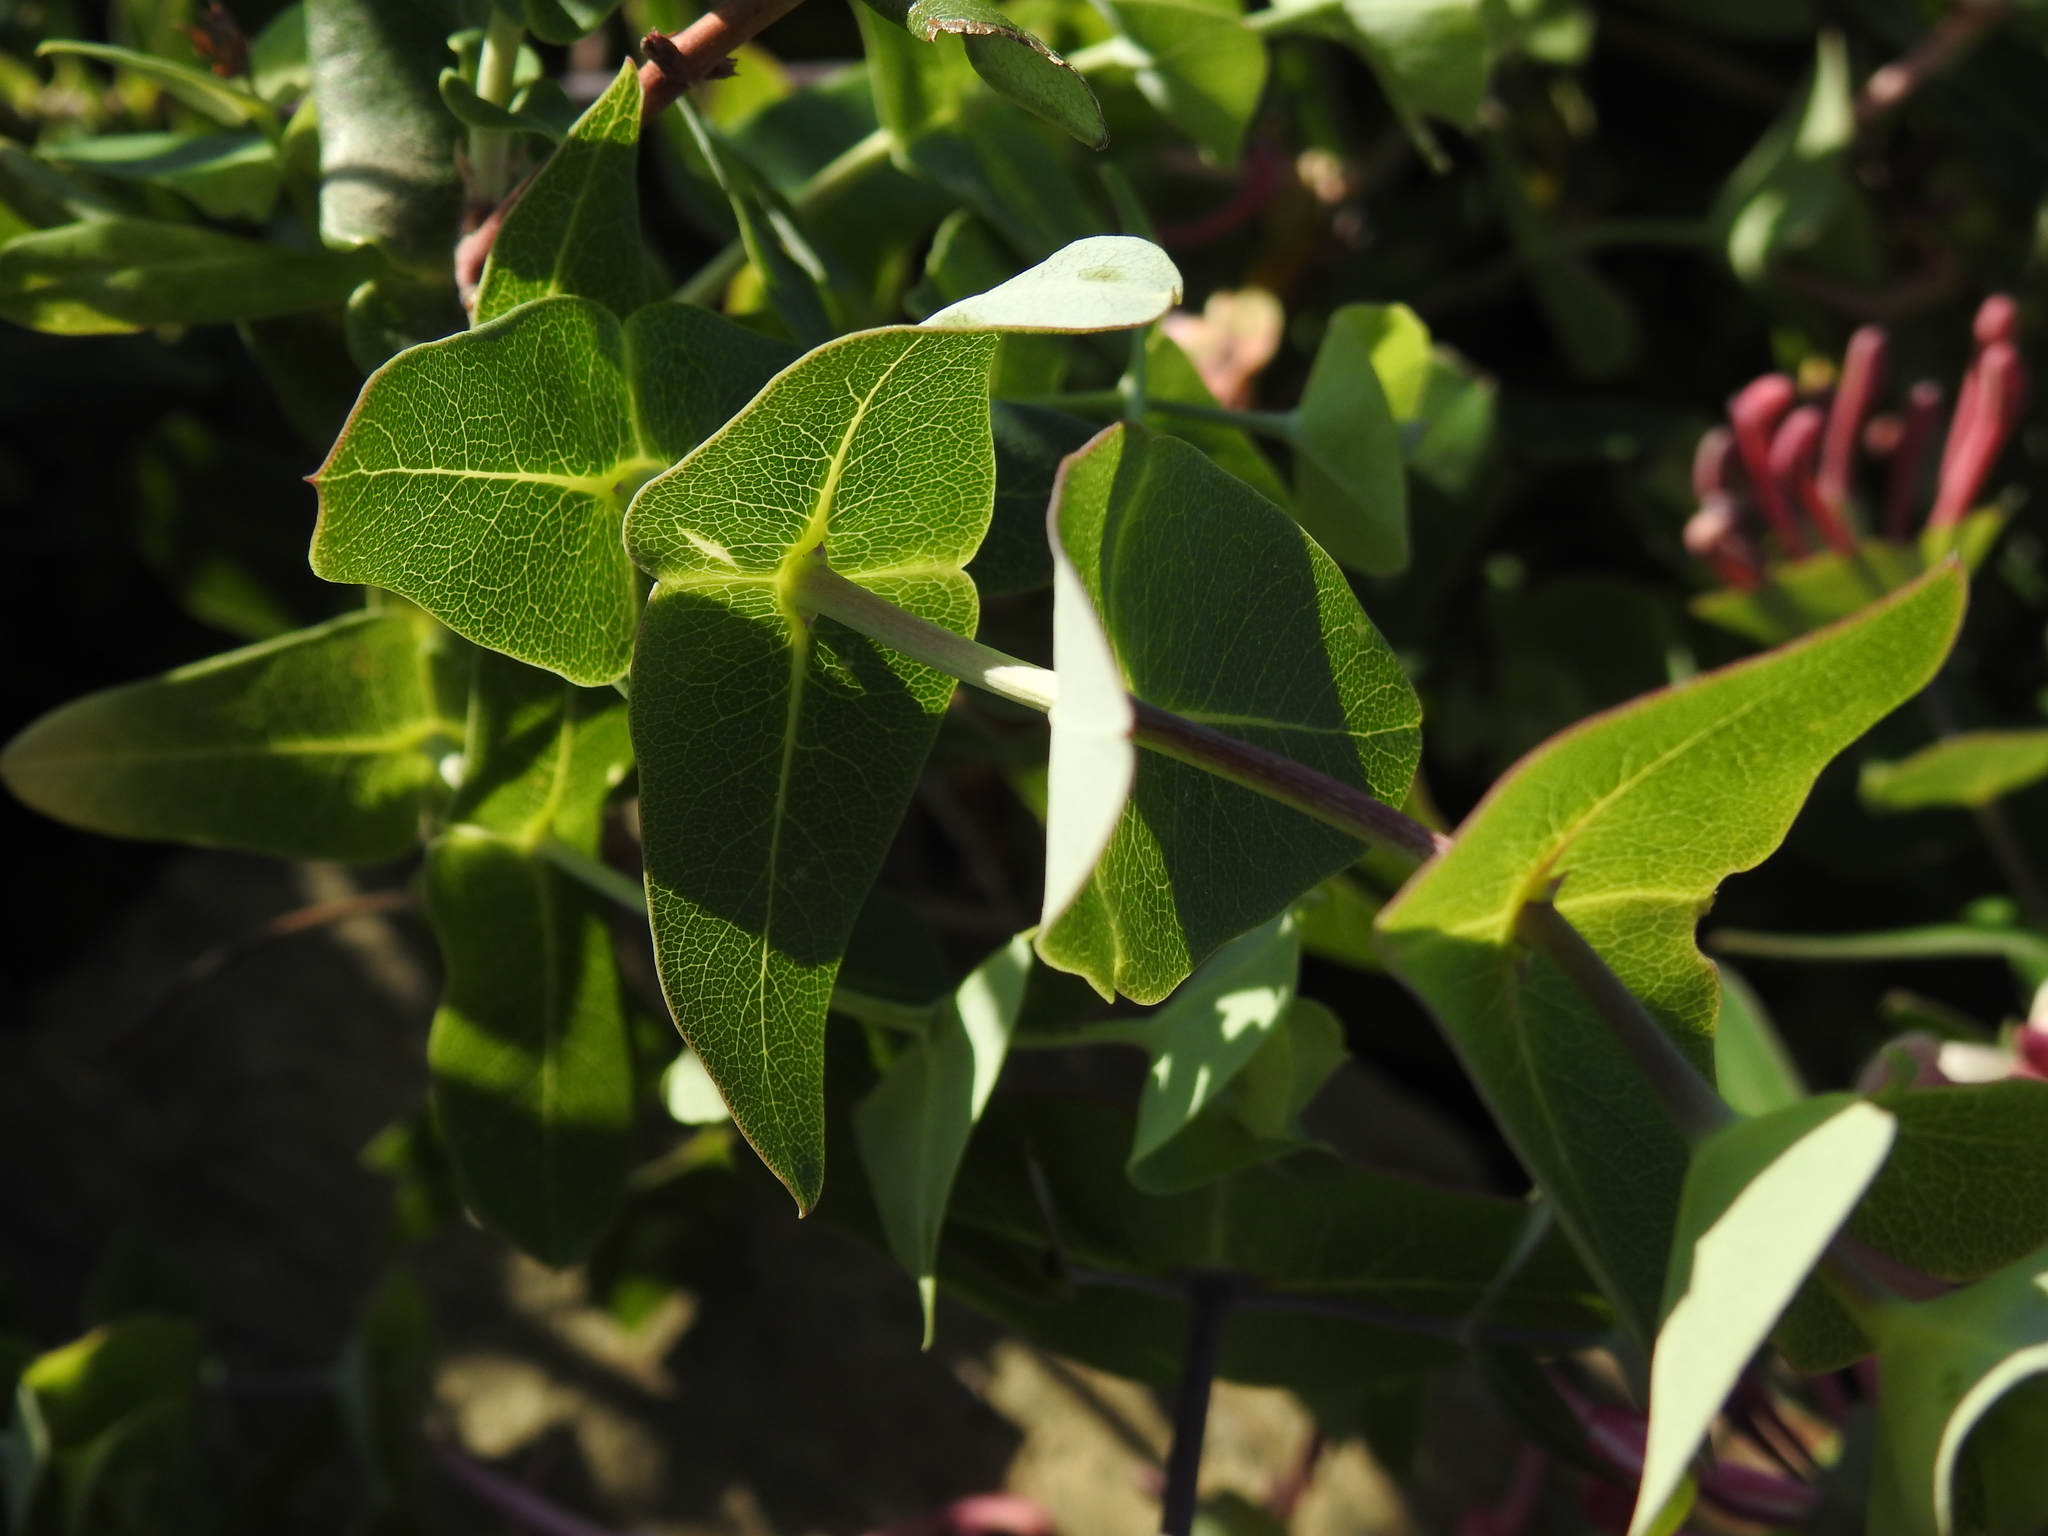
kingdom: Plantae
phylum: Tracheophyta
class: Magnoliopsida
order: Dipsacales
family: Caprifoliaceae
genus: Lonicera
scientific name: Lonicera implexa
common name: Minorca honeysuckle
